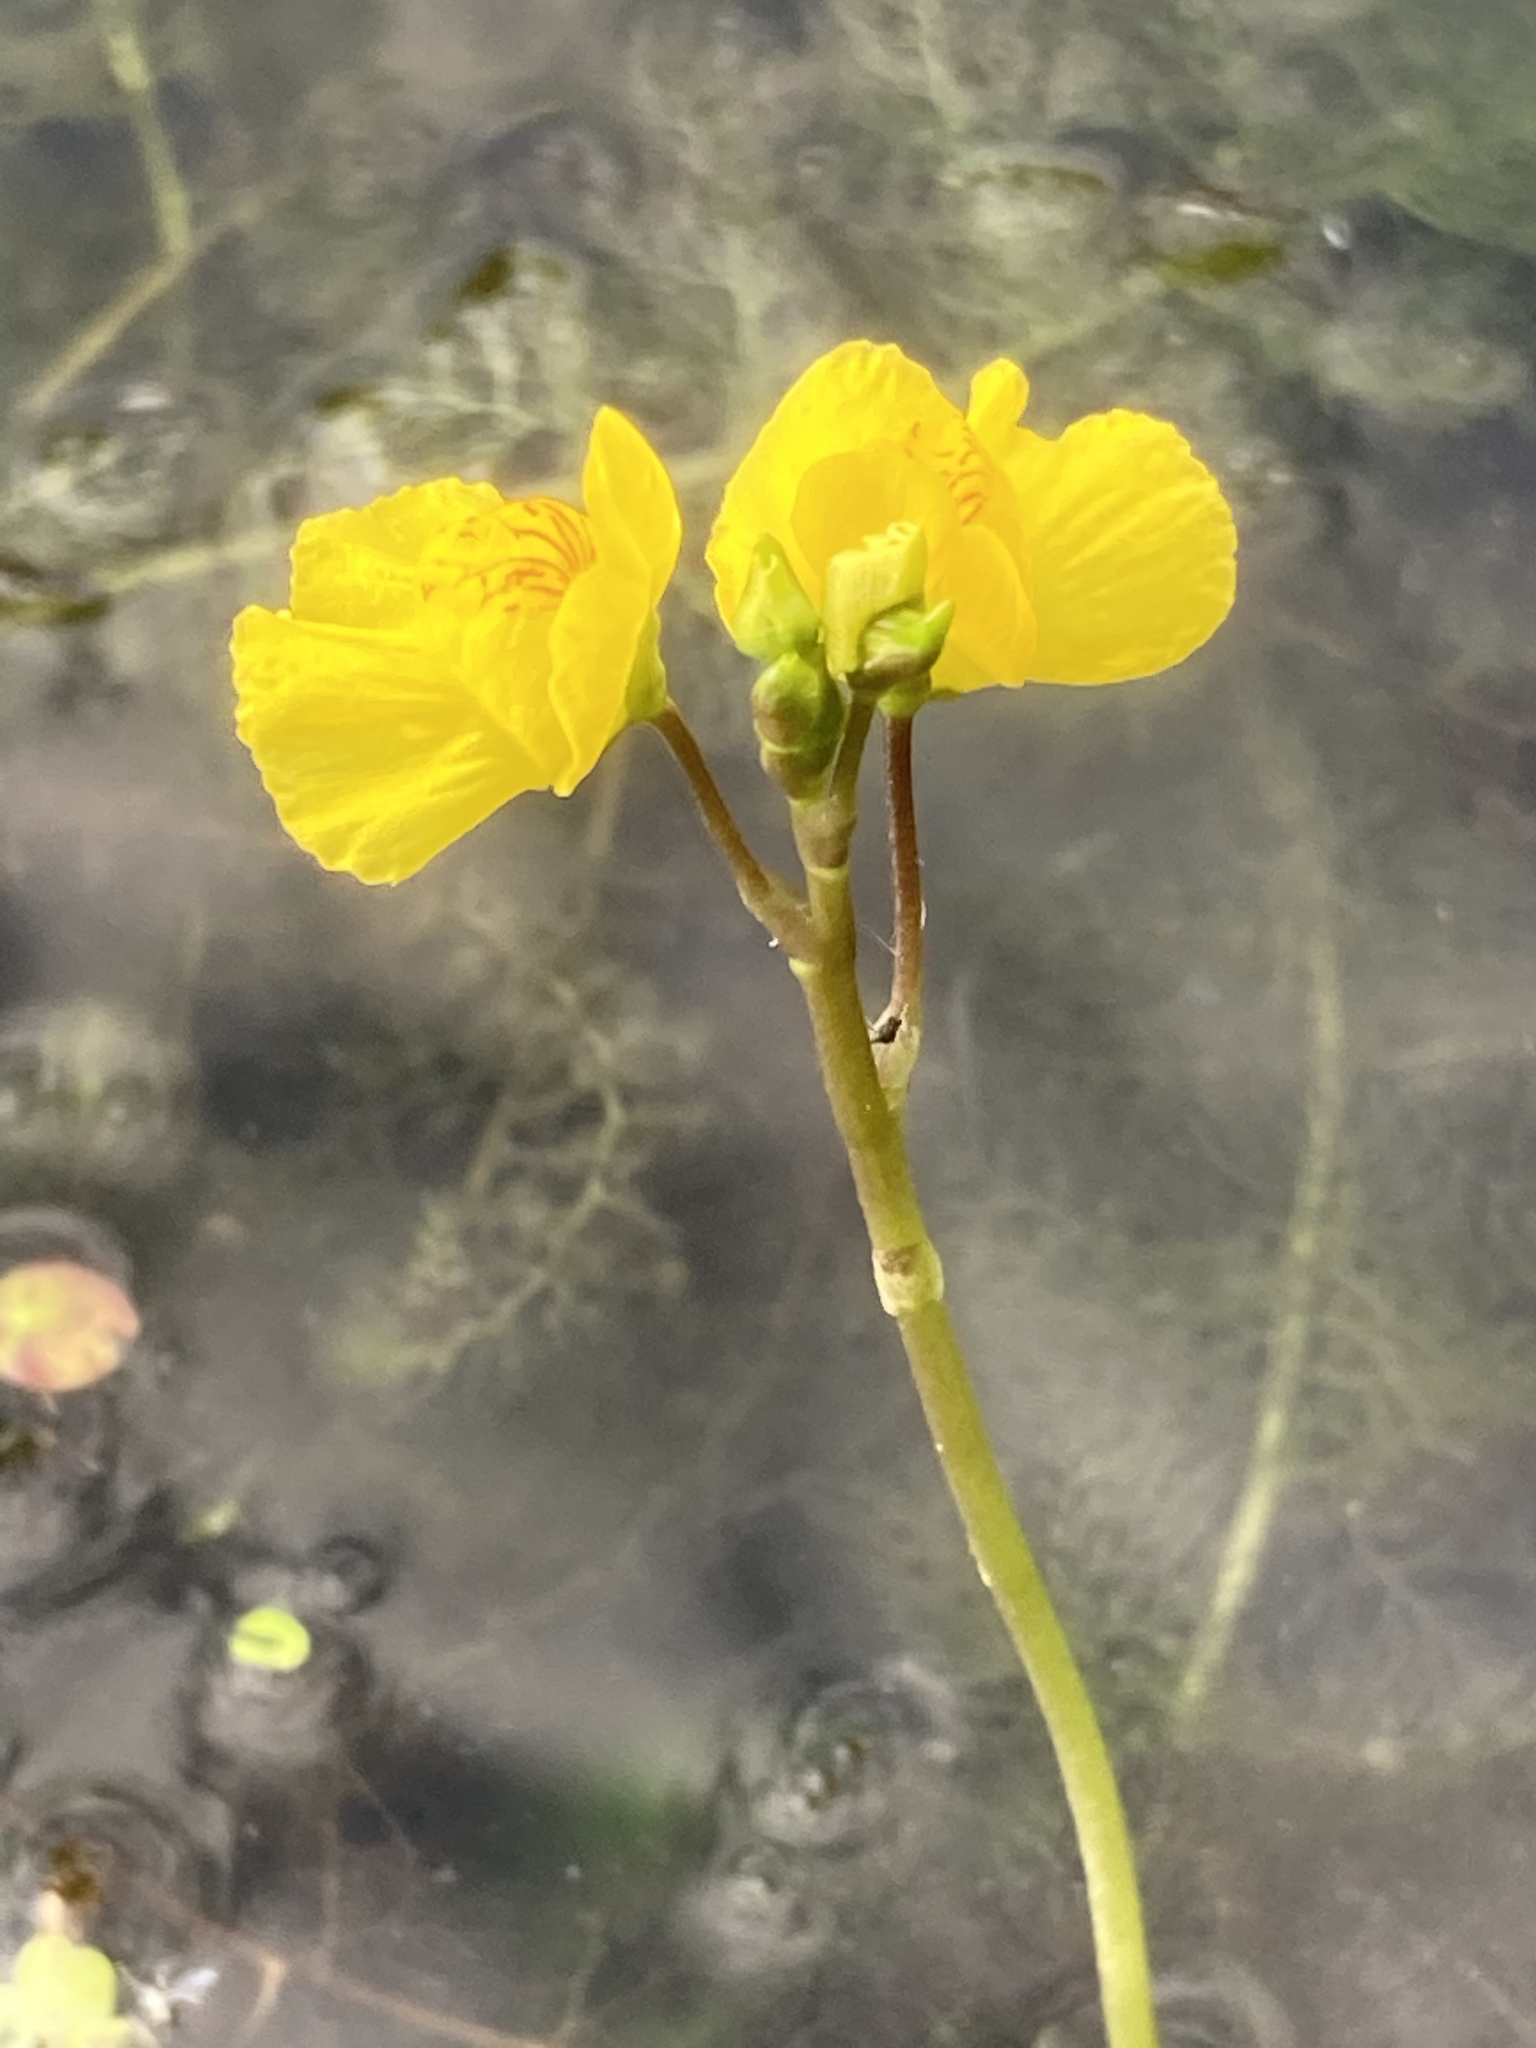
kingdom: Plantae
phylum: Tracheophyta
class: Magnoliopsida
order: Lamiales
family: Lentibulariaceae
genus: Utricularia
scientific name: Utricularia australis
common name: Bladderwort
